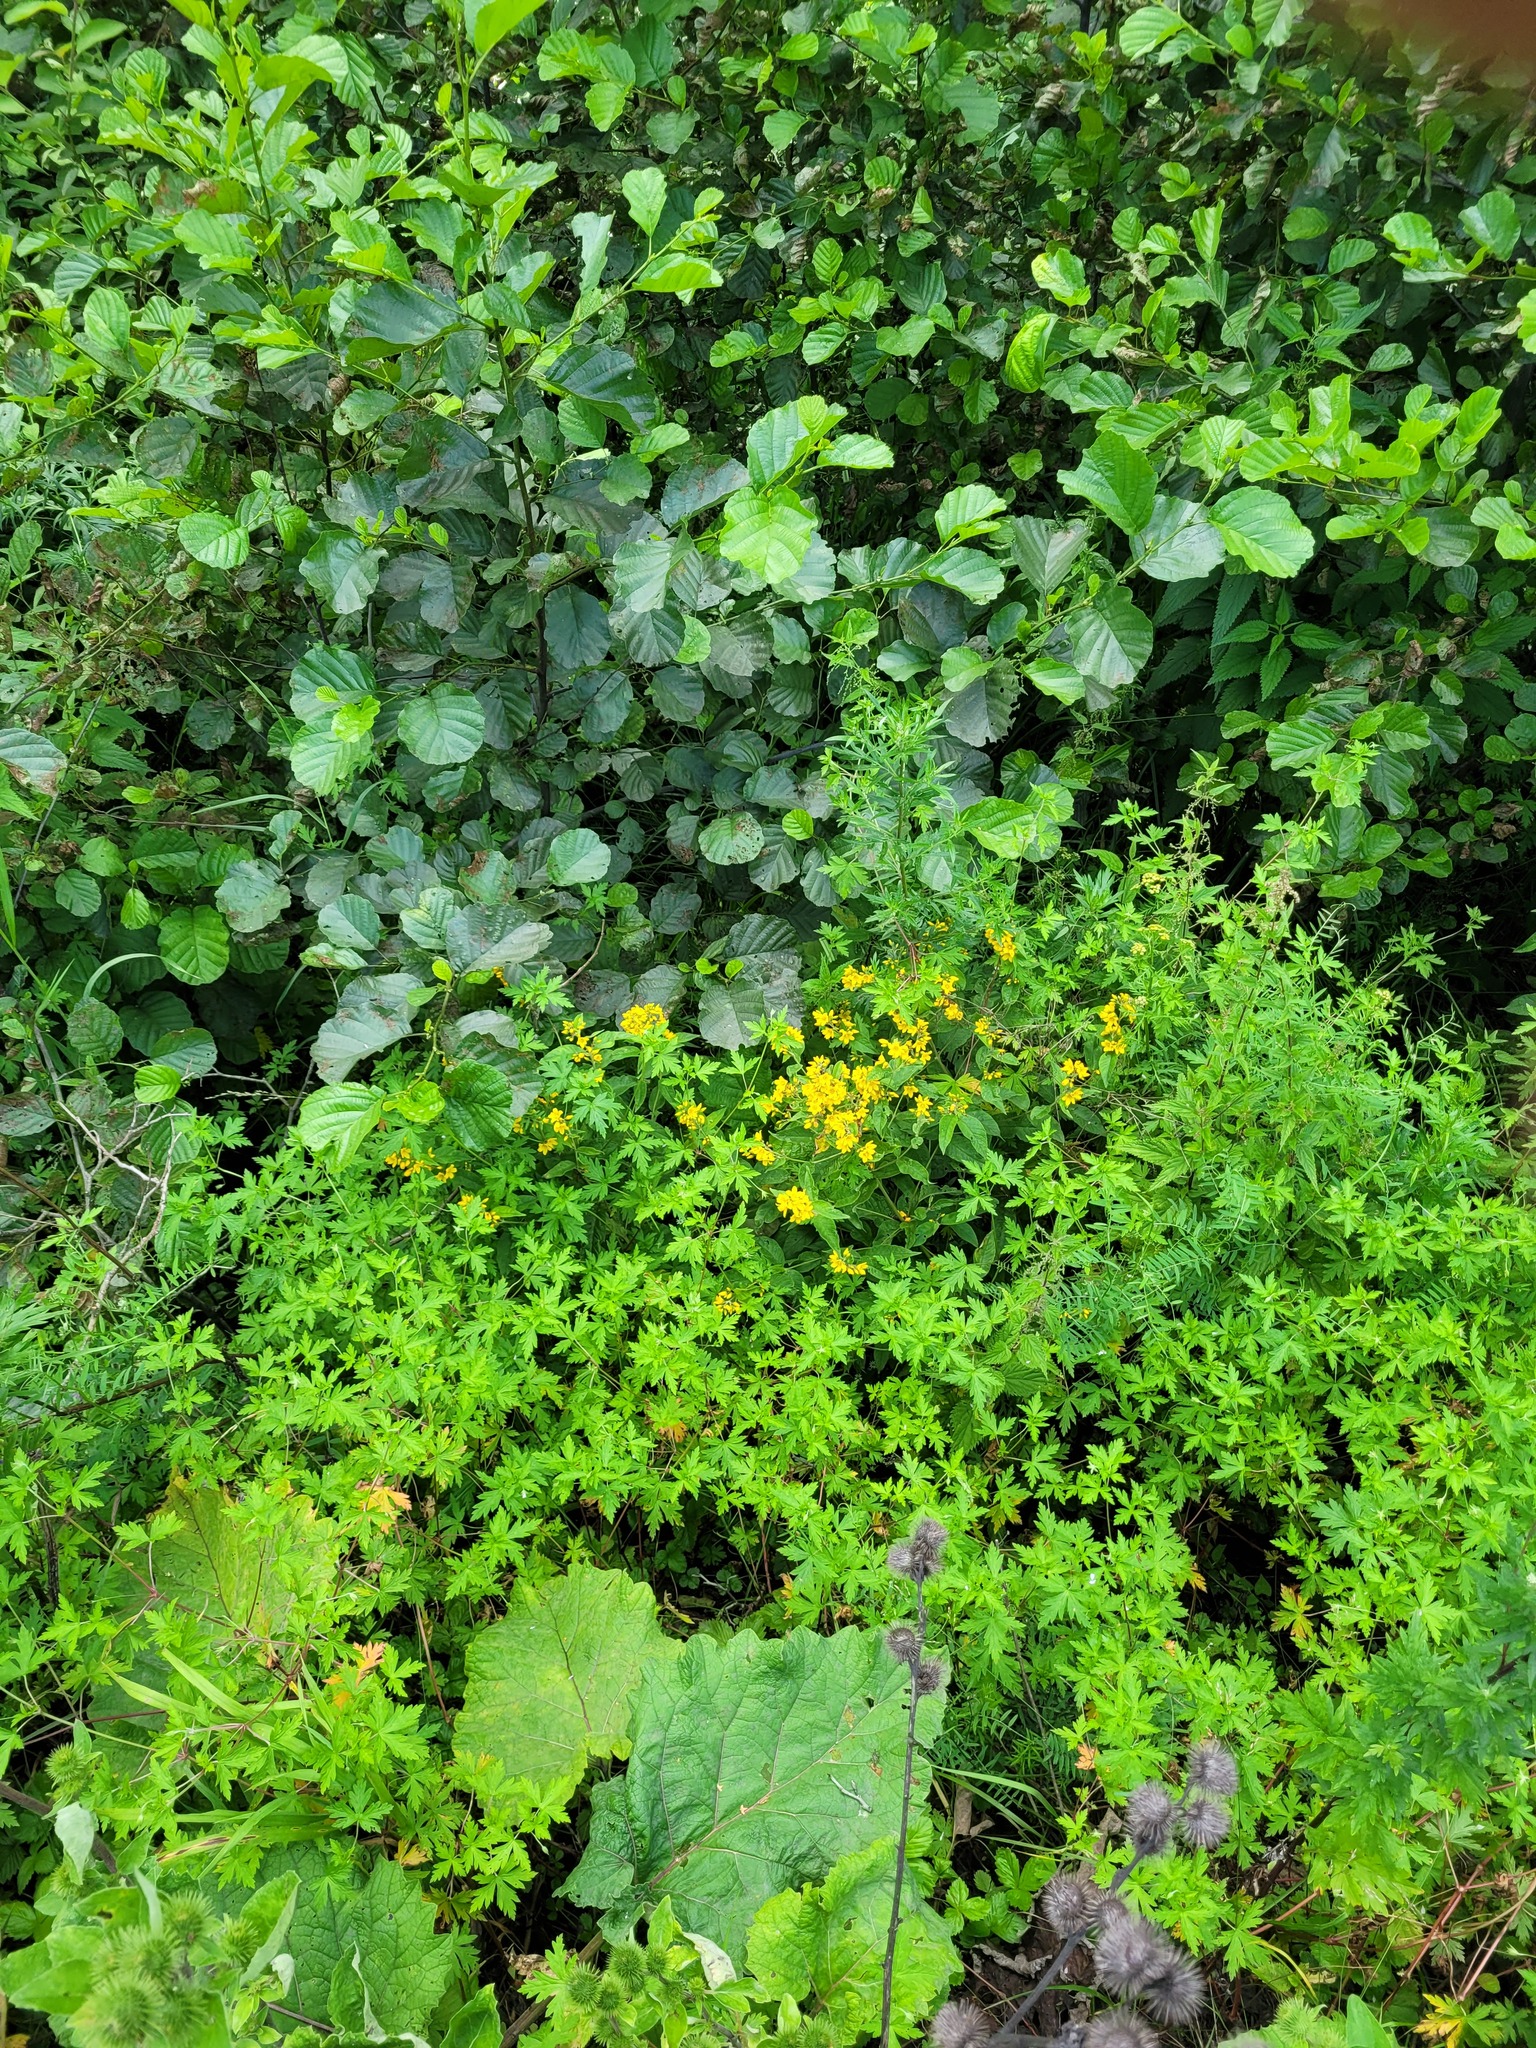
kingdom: Plantae
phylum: Tracheophyta
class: Magnoliopsida
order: Ericales
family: Primulaceae
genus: Lysimachia
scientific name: Lysimachia vulgaris
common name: Yellow loosestrife
